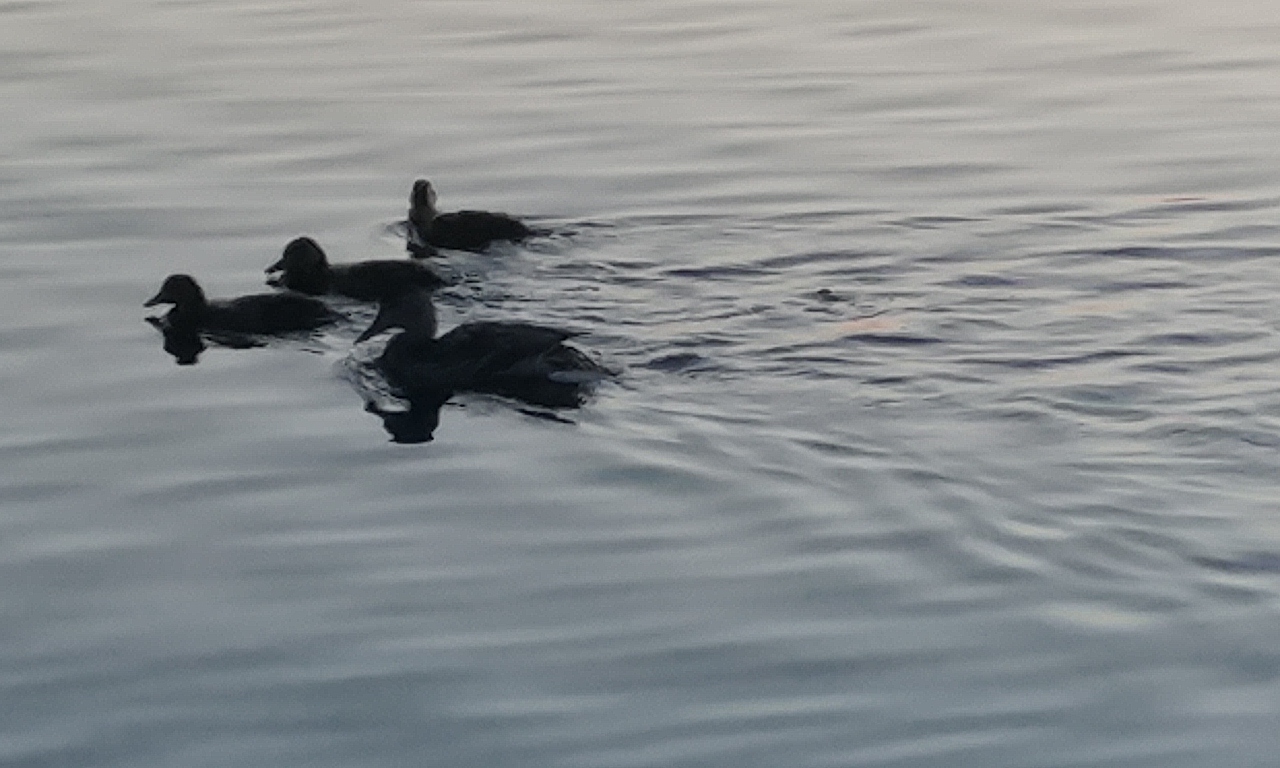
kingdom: Animalia
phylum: Chordata
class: Aves
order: Anseriformes
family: Anatidae
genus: Anas
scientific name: Anas platyrhynchos
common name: Mallard
